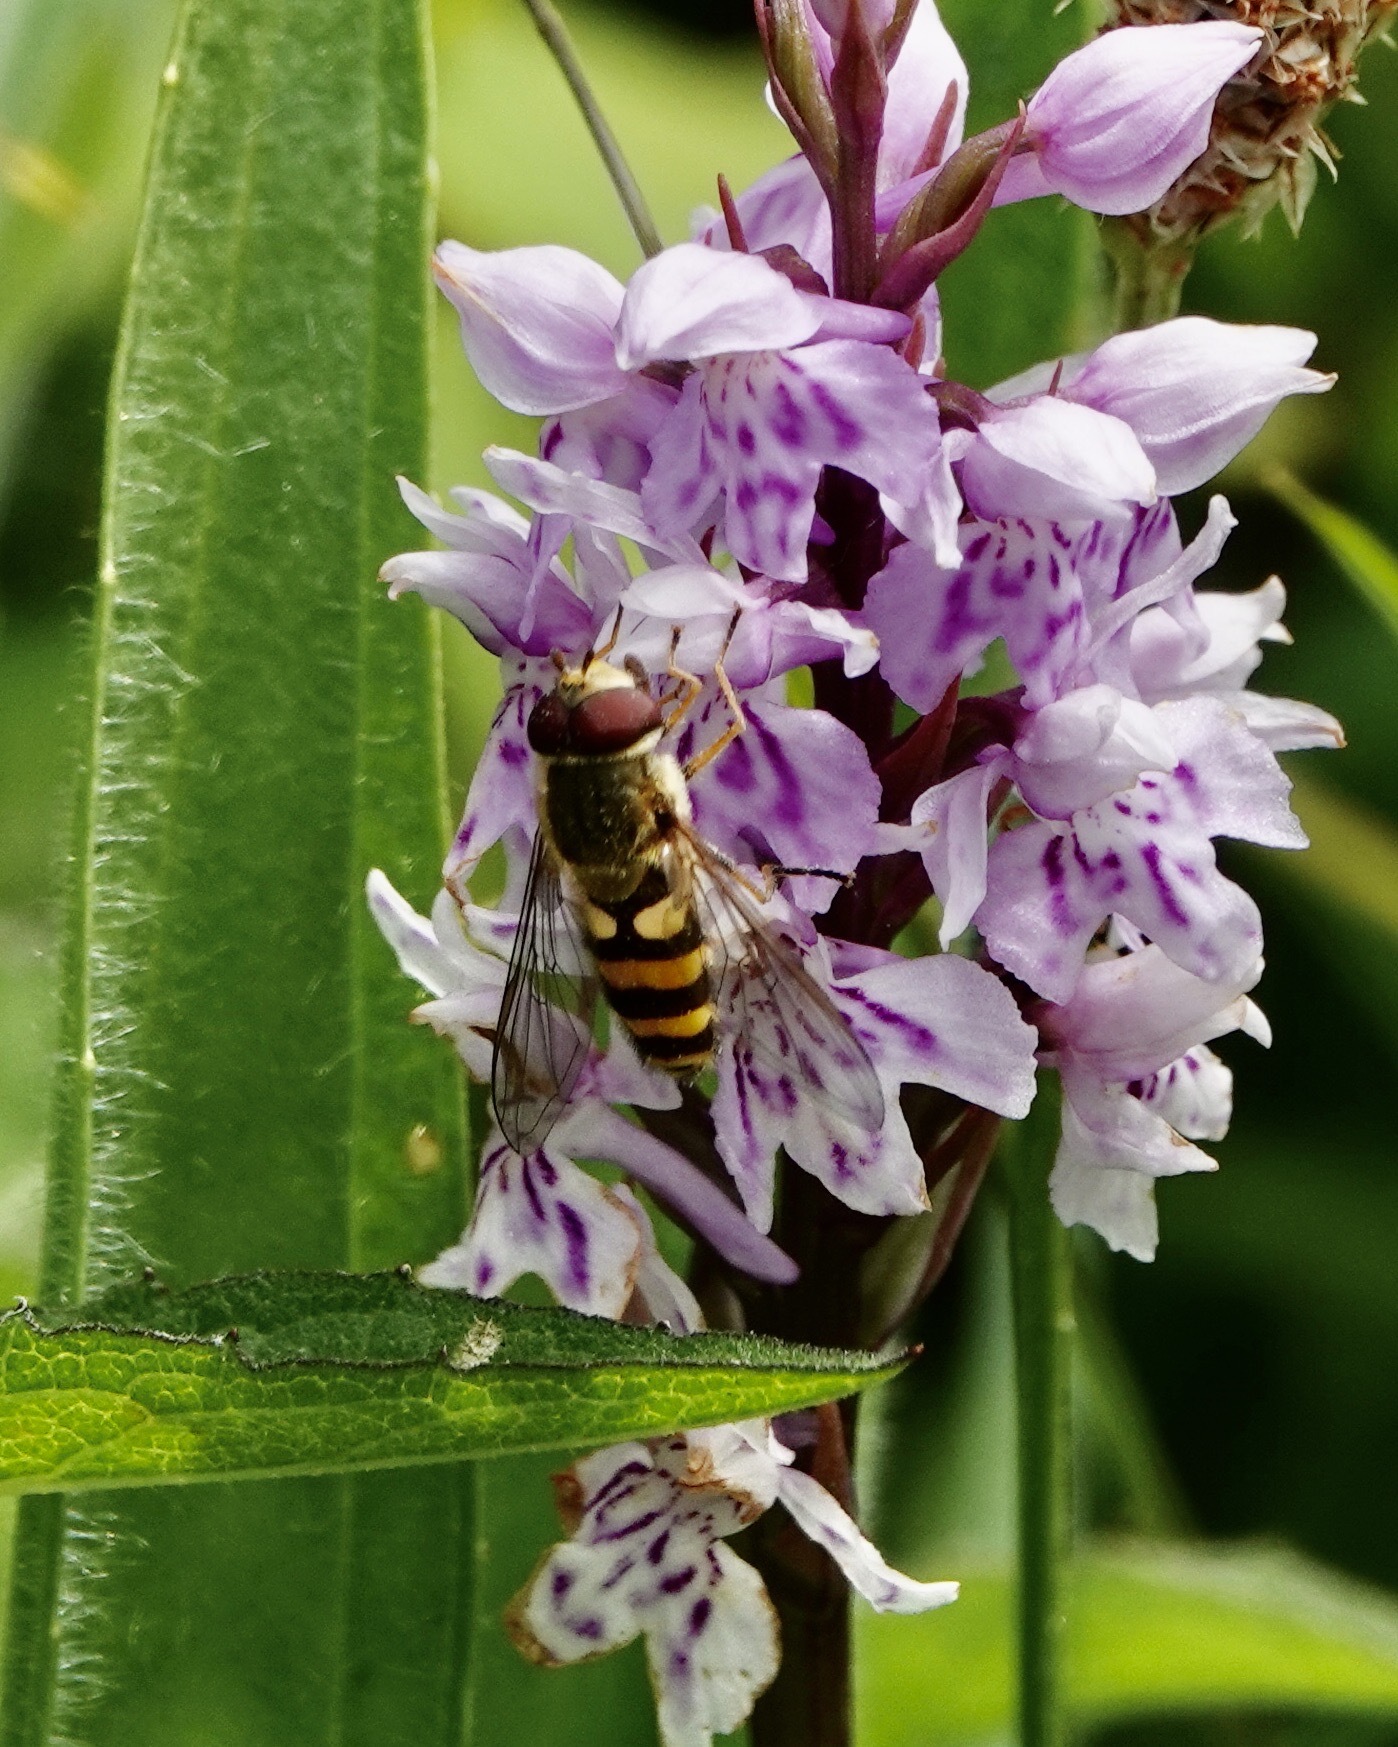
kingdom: Animalia
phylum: Arthropoda
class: Insecta
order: Diptera
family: Syrphidae
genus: Syrphus
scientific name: Syrphus
